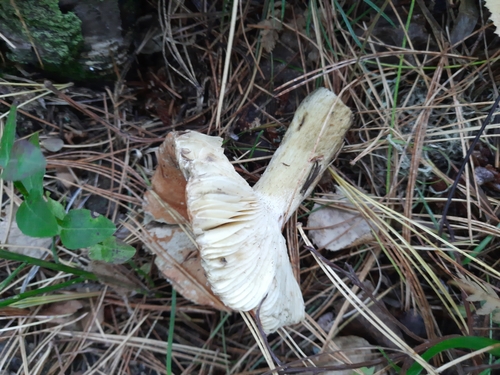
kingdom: Fungi
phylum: Basidiomycota
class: Agaricomycetes
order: Russulales
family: Russulaceae
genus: Russula
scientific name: Russula rosea
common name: Rosy brittlegill
